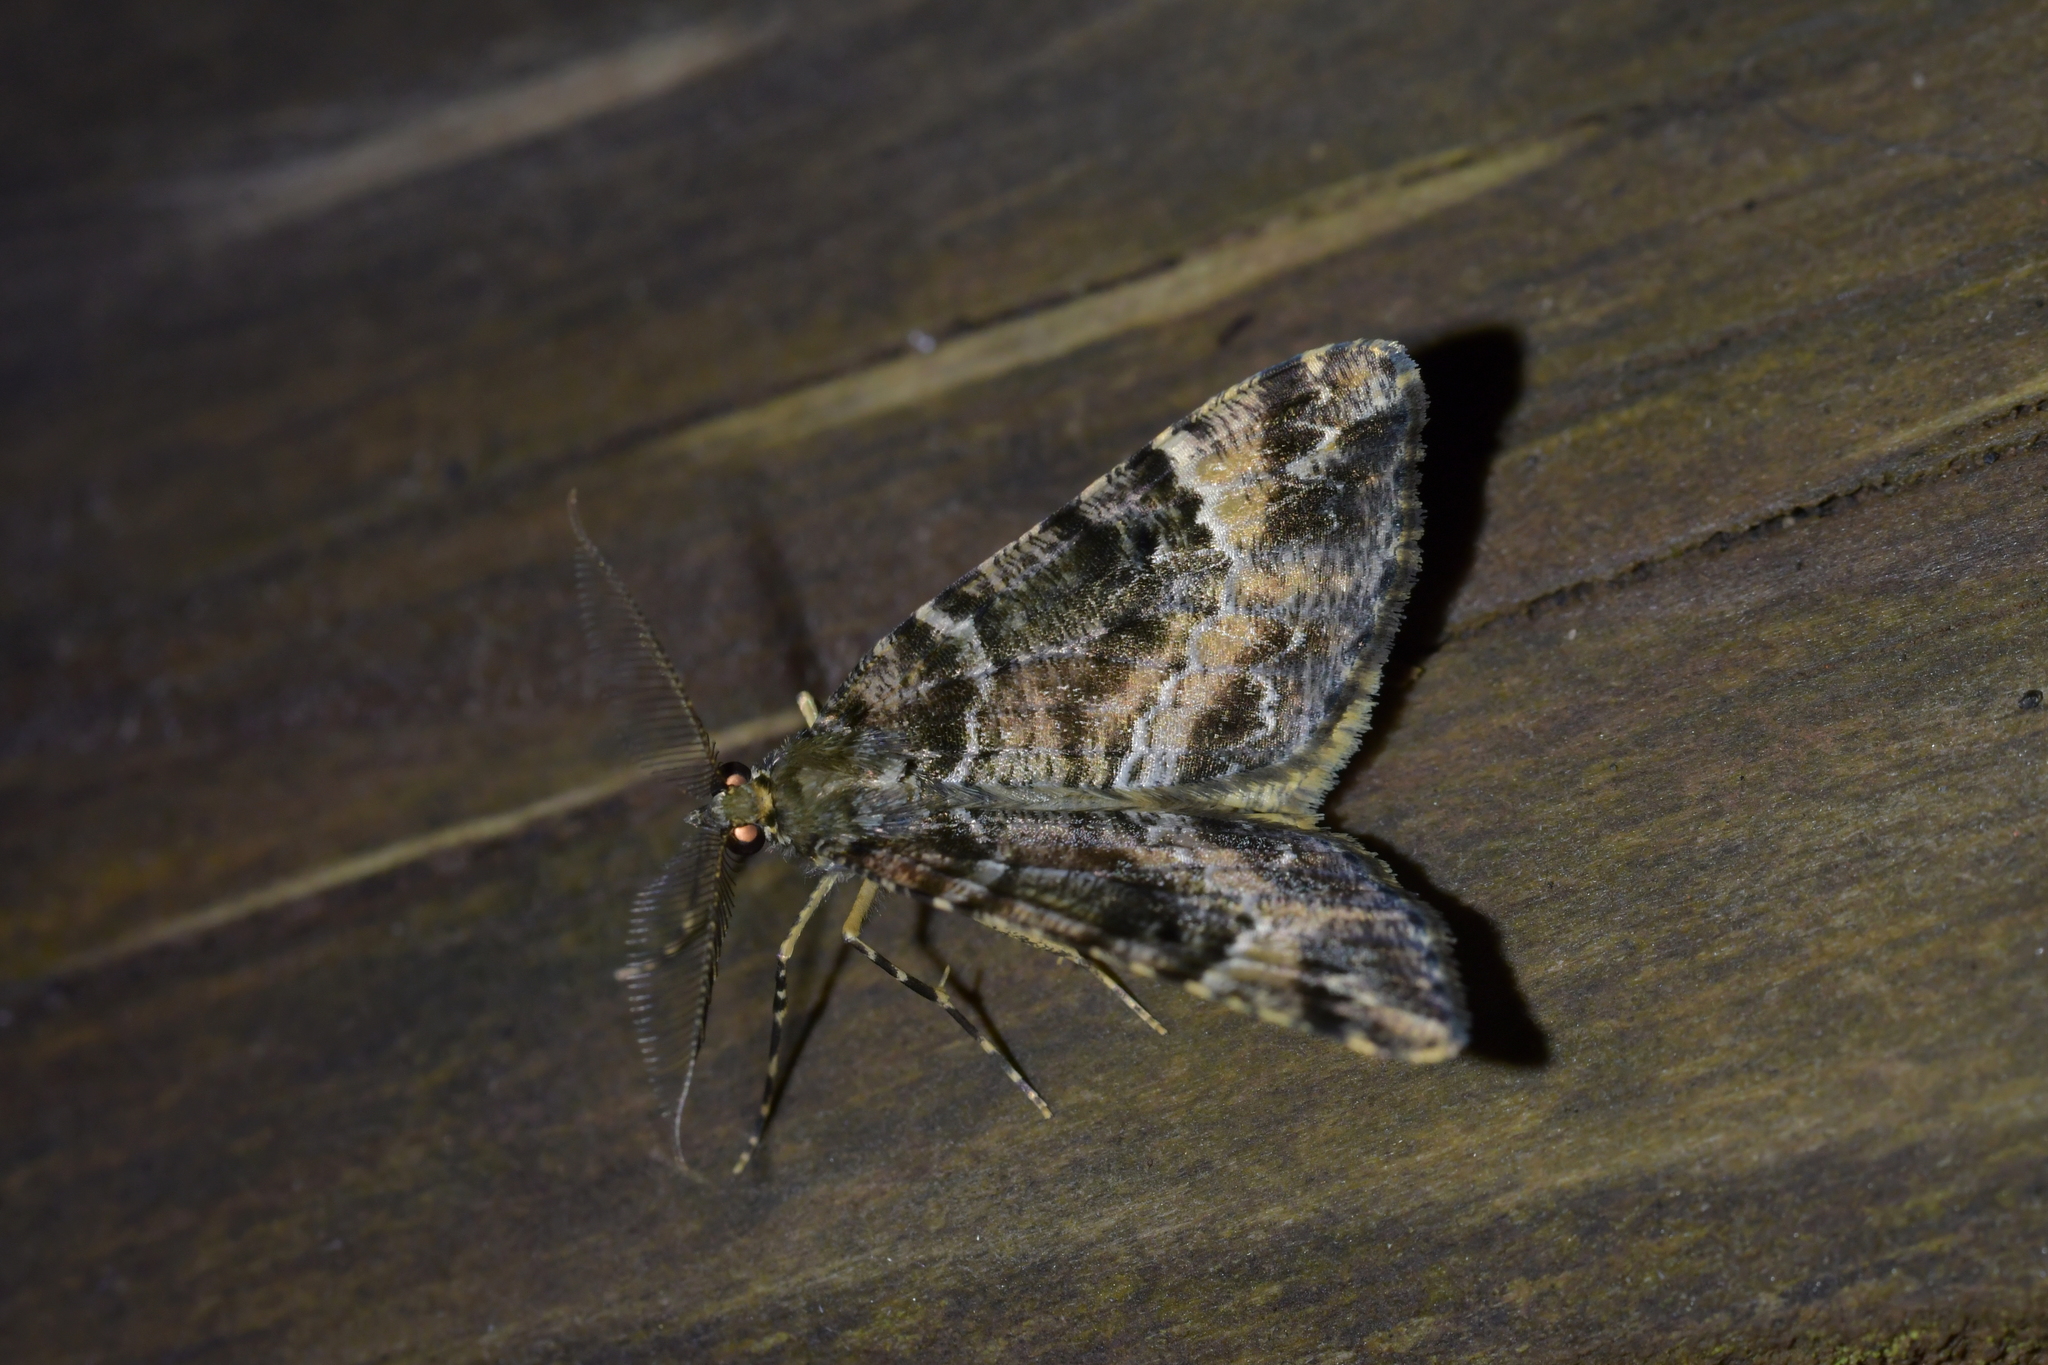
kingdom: Animalia
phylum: Arthropoda
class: Insecta
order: Lepidoptera
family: Geometridae
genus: Pseudocoremia
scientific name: Pseudocoremia productata
